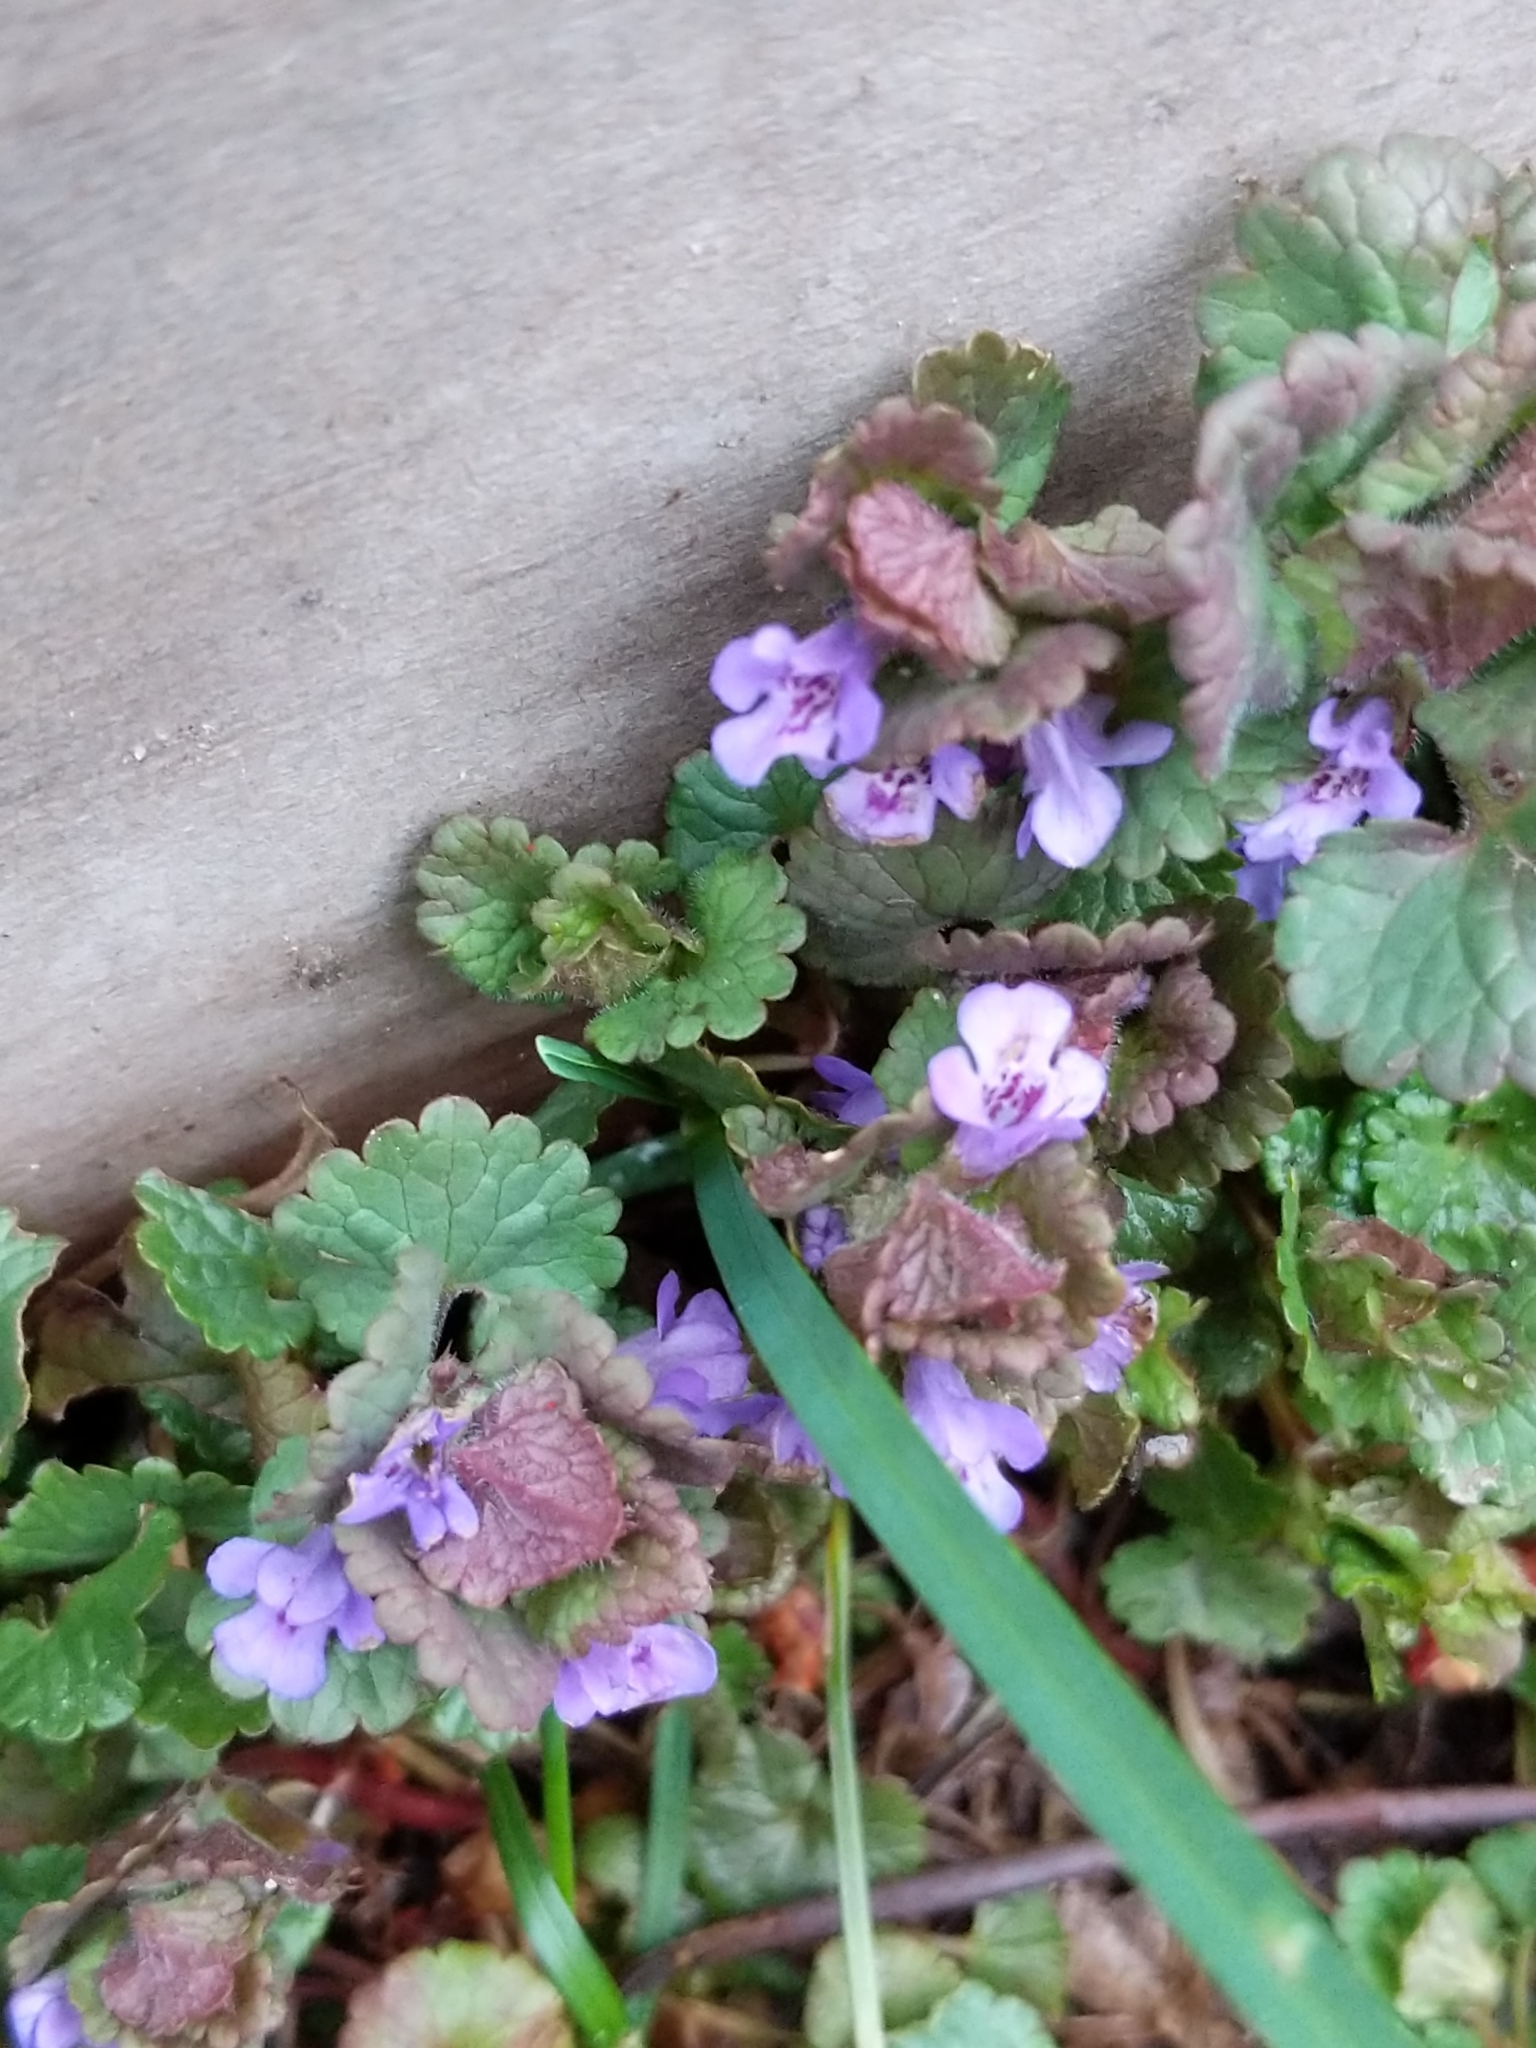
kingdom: Plantae
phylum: Tracheophyta
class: Magnoliopsida
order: Lamiales
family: Lamiaceae
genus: Glechoma
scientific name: Glechoma hederacea
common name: Ground ivy
